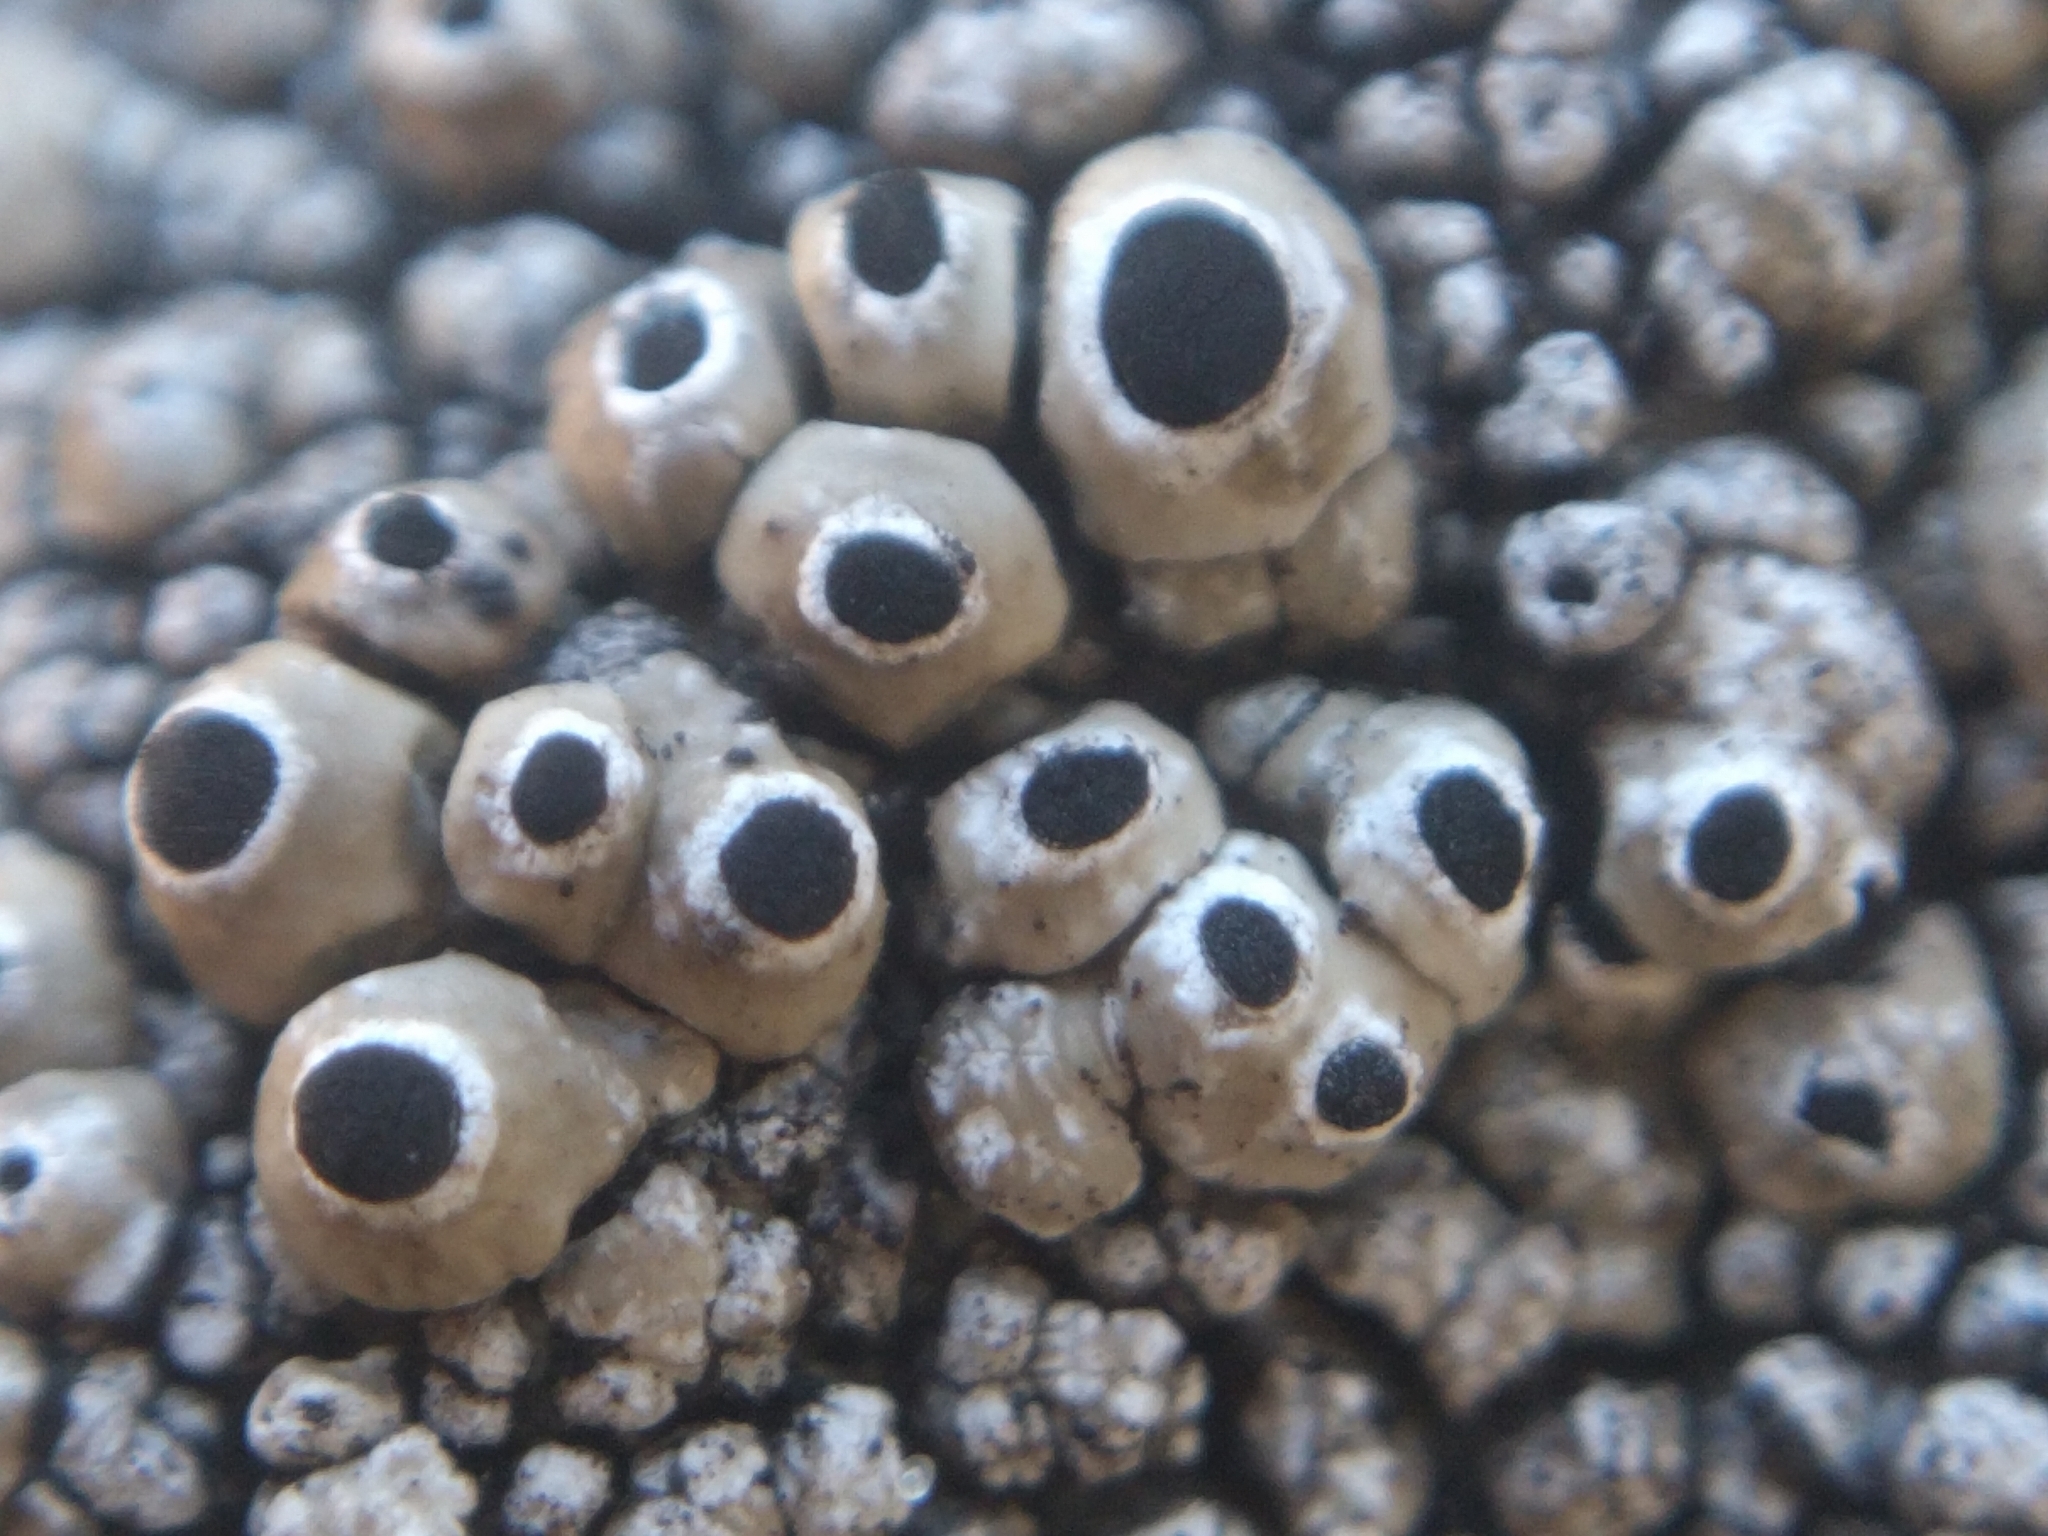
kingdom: Fungi
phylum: Ascomycota
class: Lecanoromycetes
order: Caliciales
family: Caliciaceae
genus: Thelomma
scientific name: Thelomma mammosum
